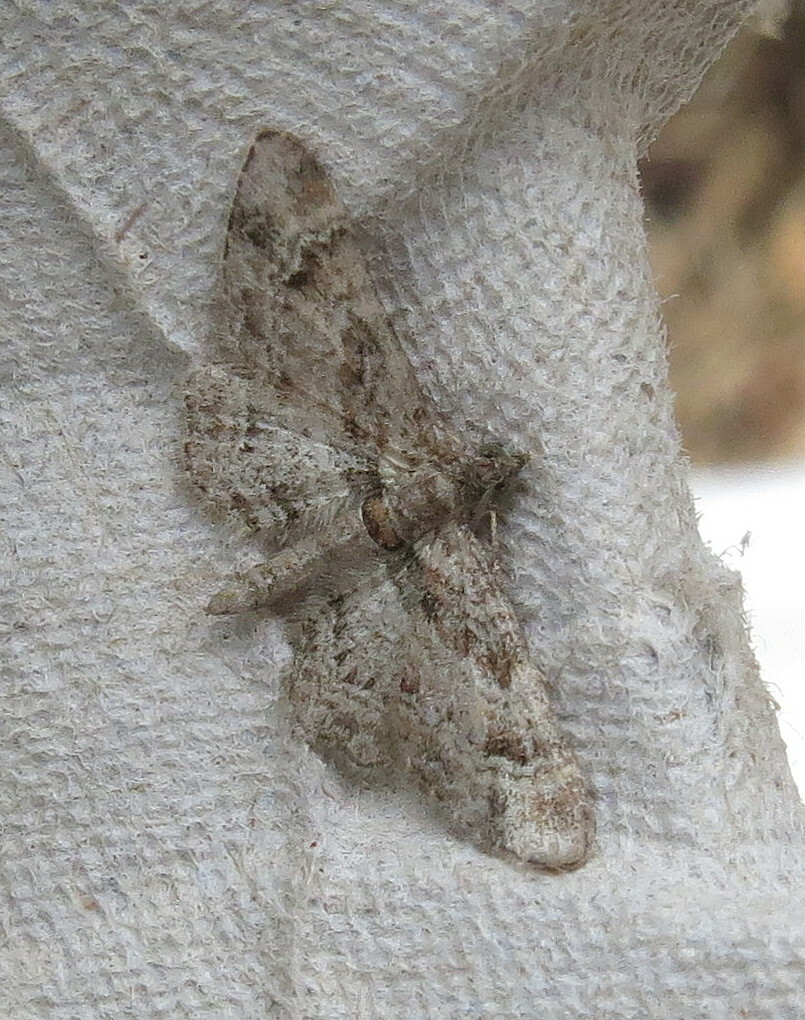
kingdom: Animalia
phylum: Arthropoda
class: Insecta
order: Lepidoptera
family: Geometridae
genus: Gymnoscelis
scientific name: Gymnoscelis rufifasciata
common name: Double-striped pug
